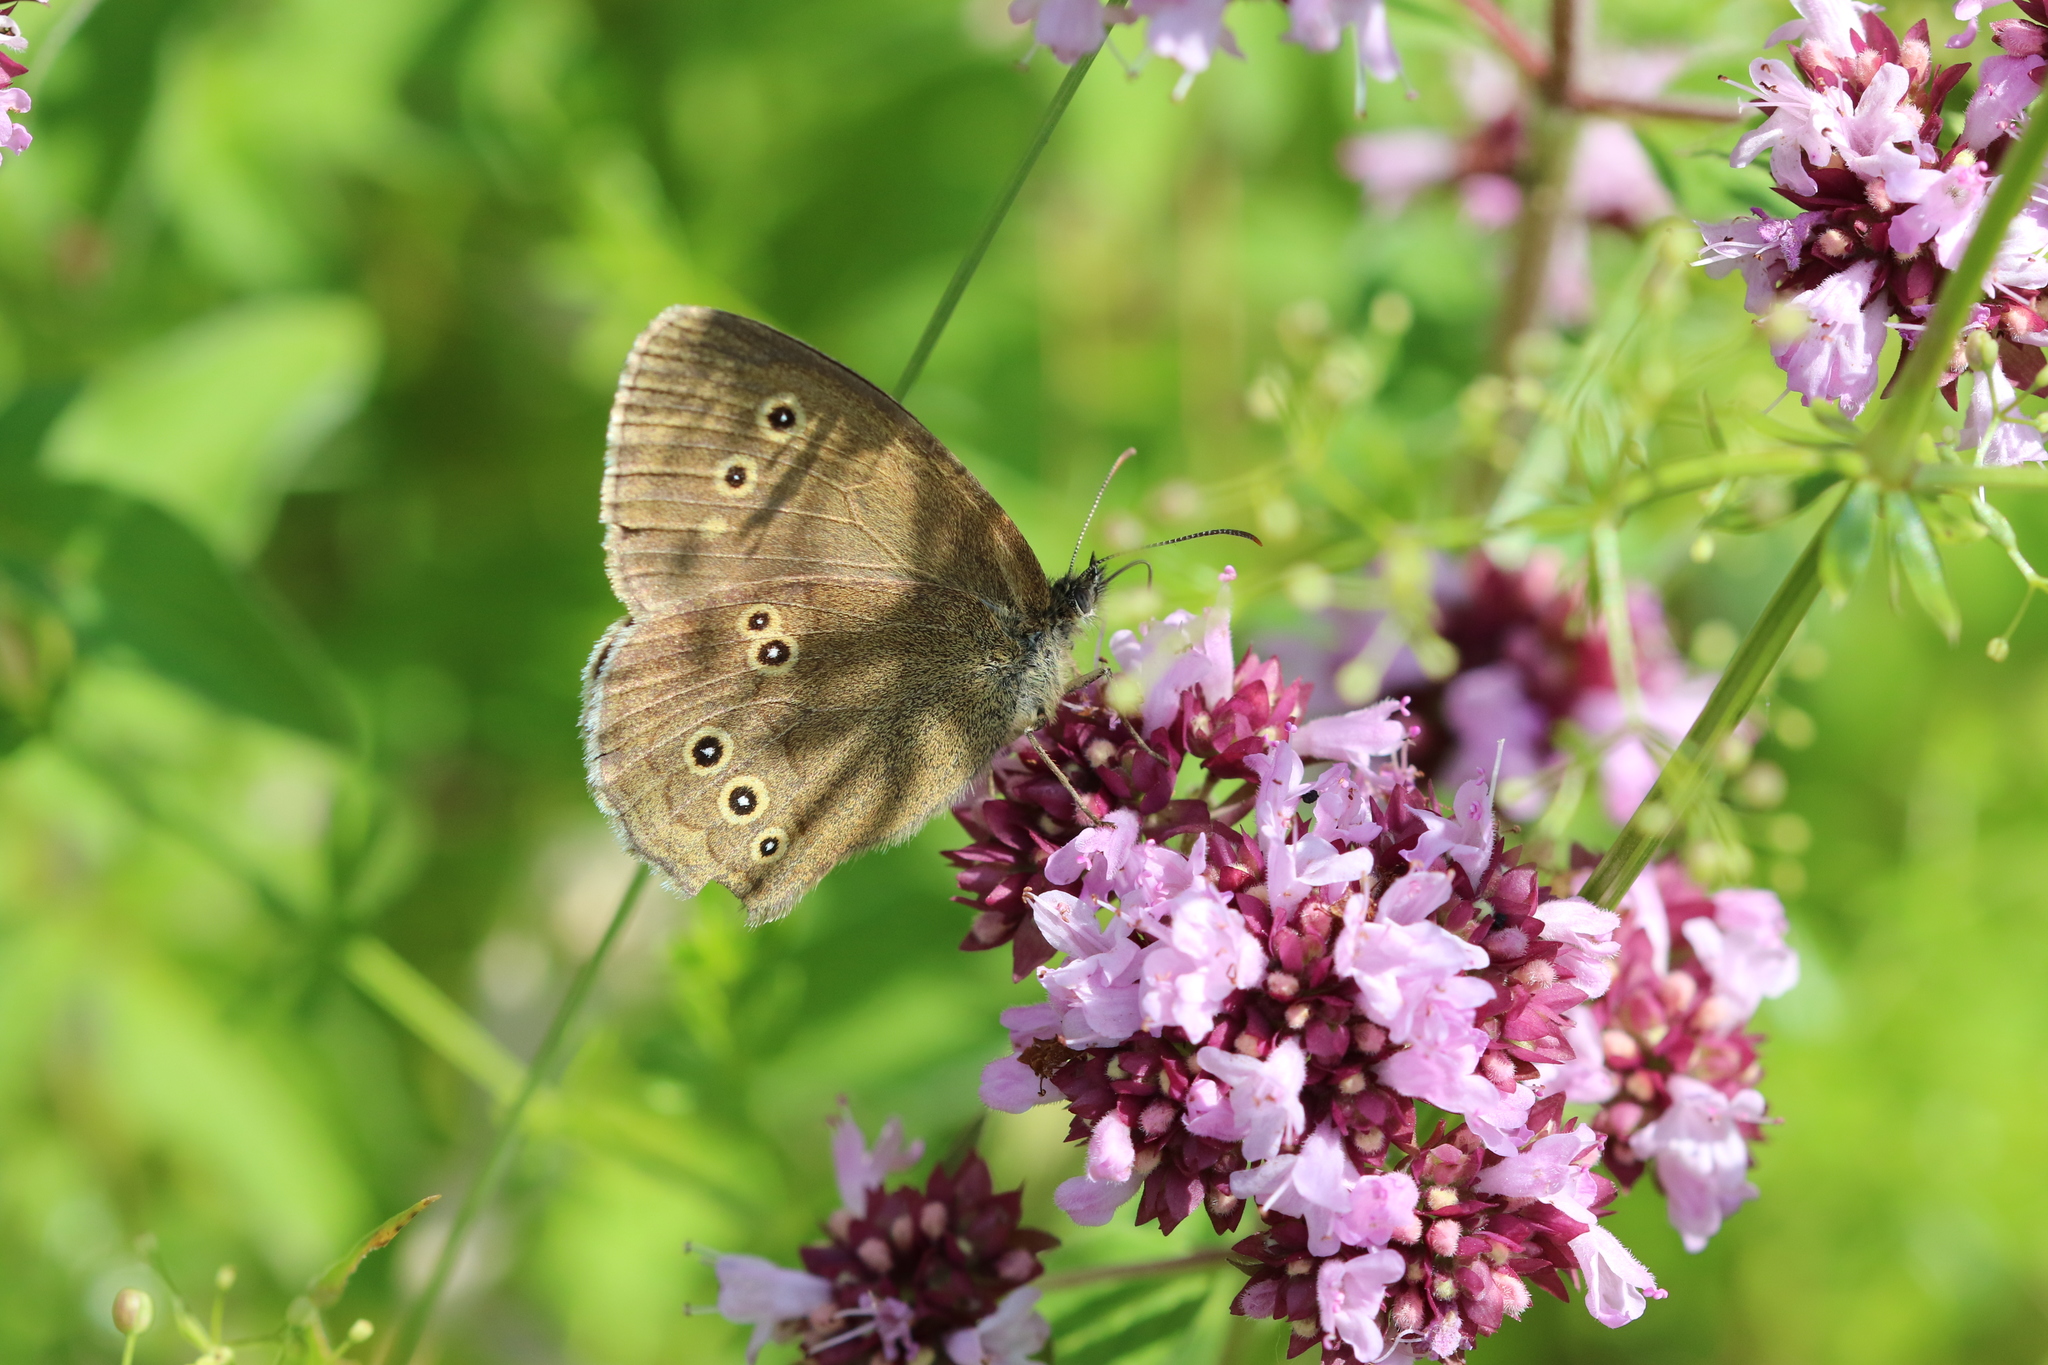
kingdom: Animalia
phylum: Arthropoda
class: Insecta
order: Lepidoptera
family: Nymphalidae
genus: Aphantopus
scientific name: Aphantopus hyperantus
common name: Ringlet
